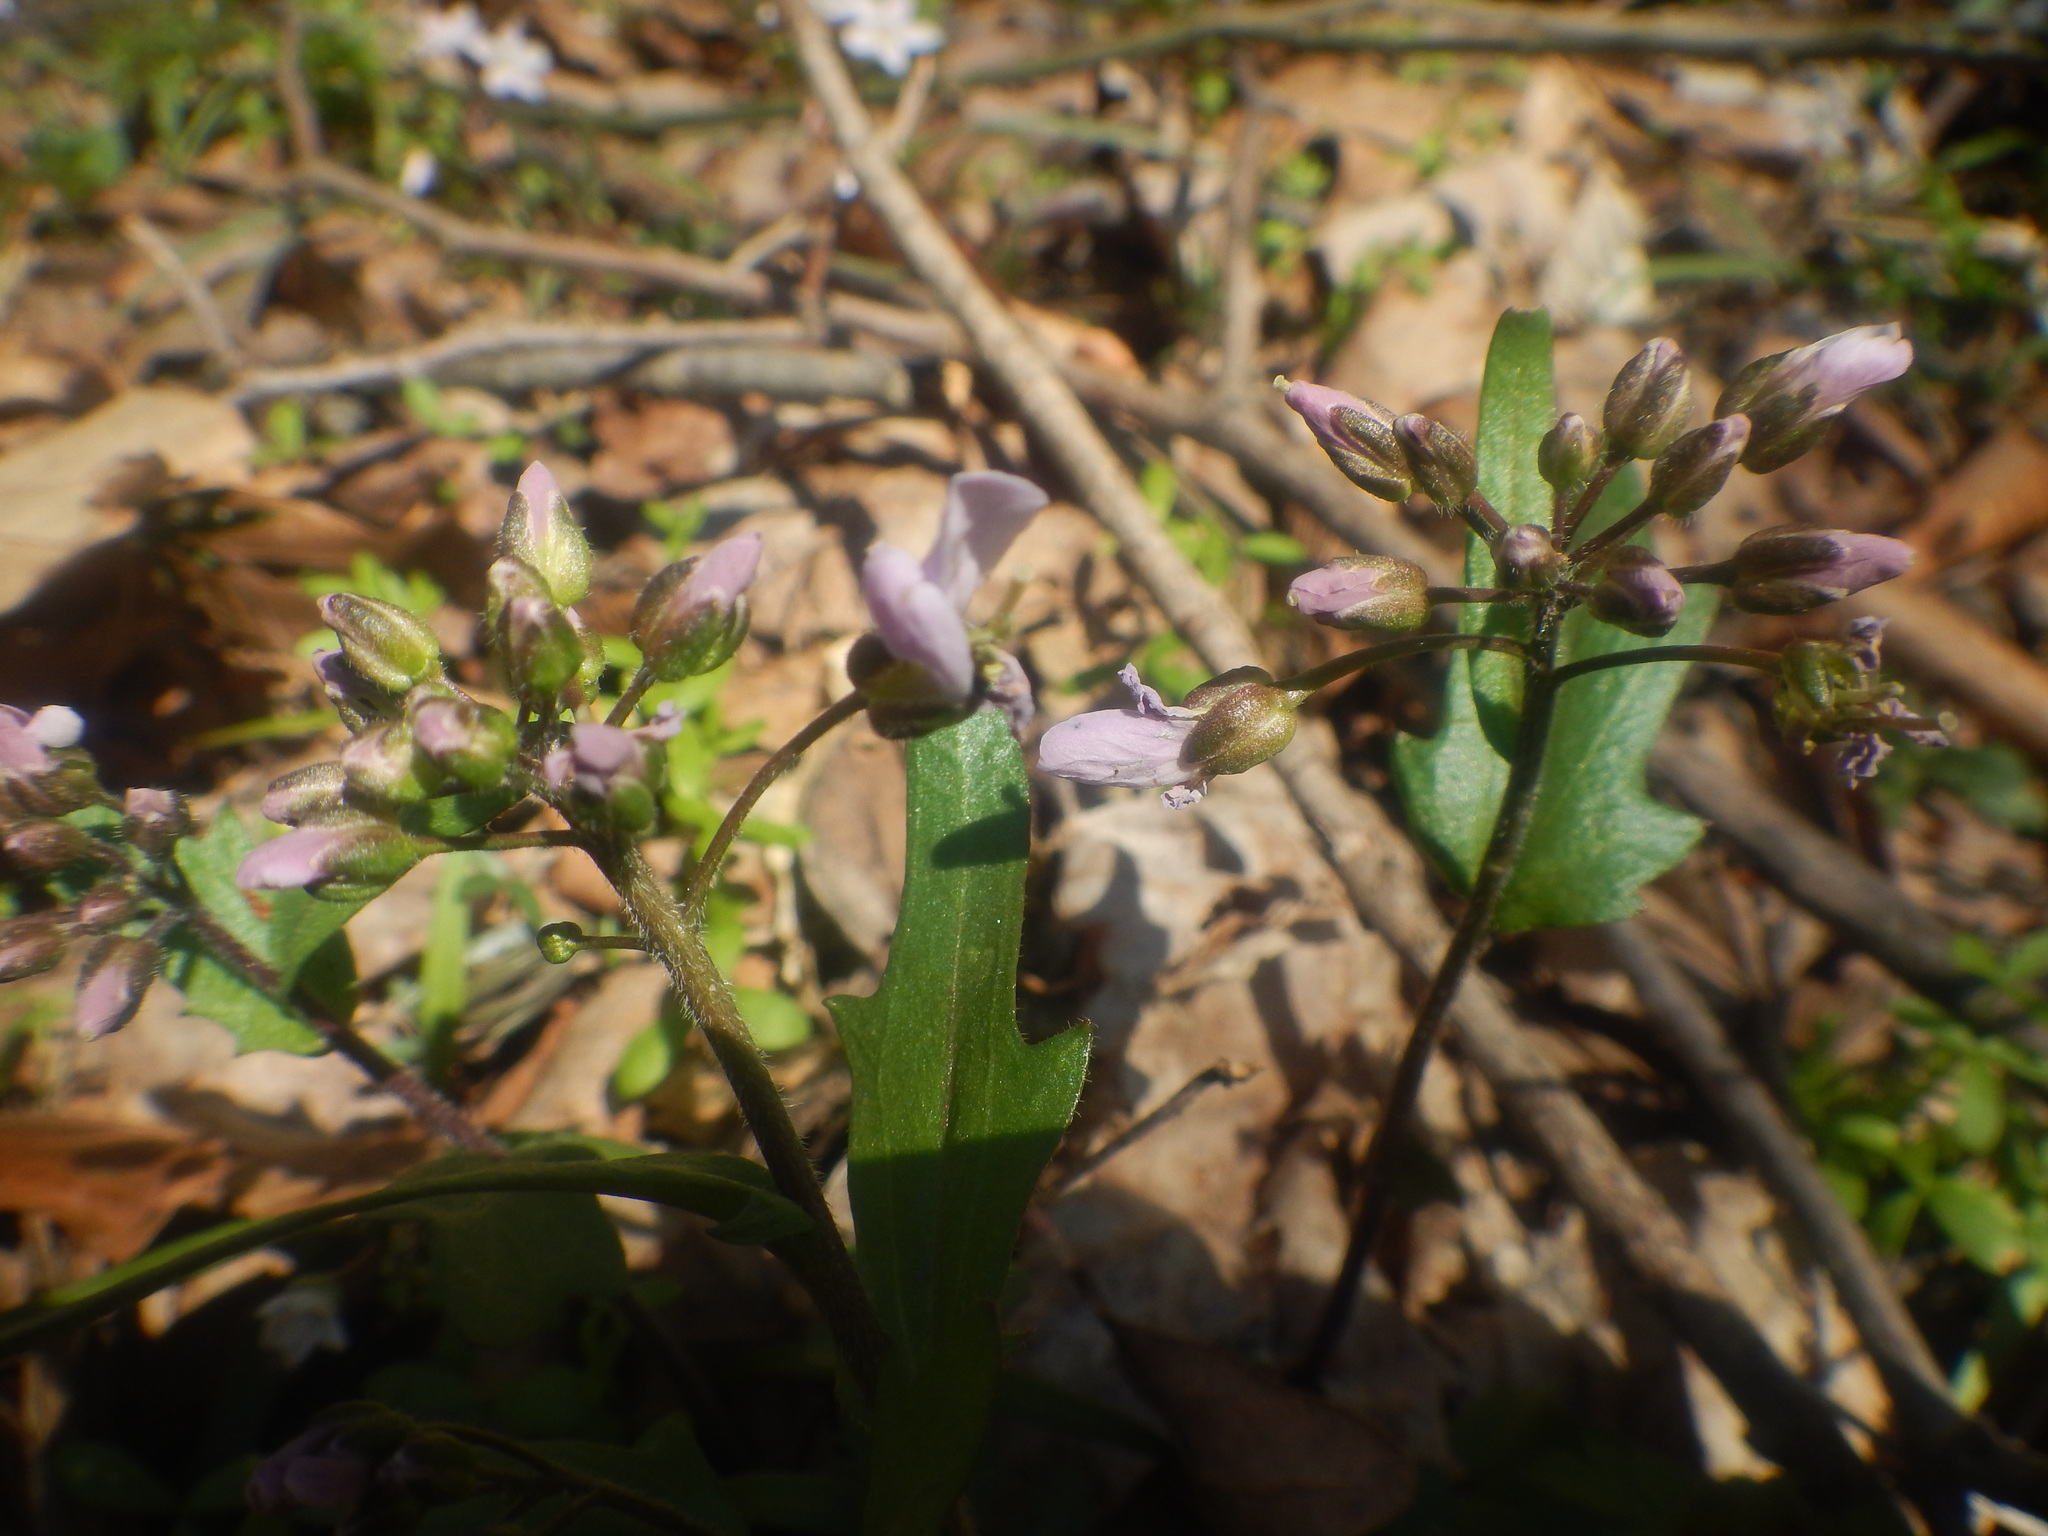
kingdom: Plantae
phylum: Tracheophyta
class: Magnoliopsida
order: Brassicales
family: Brassicaceae
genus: Cardamine
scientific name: Cardamine douglassii
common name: Purple cress
